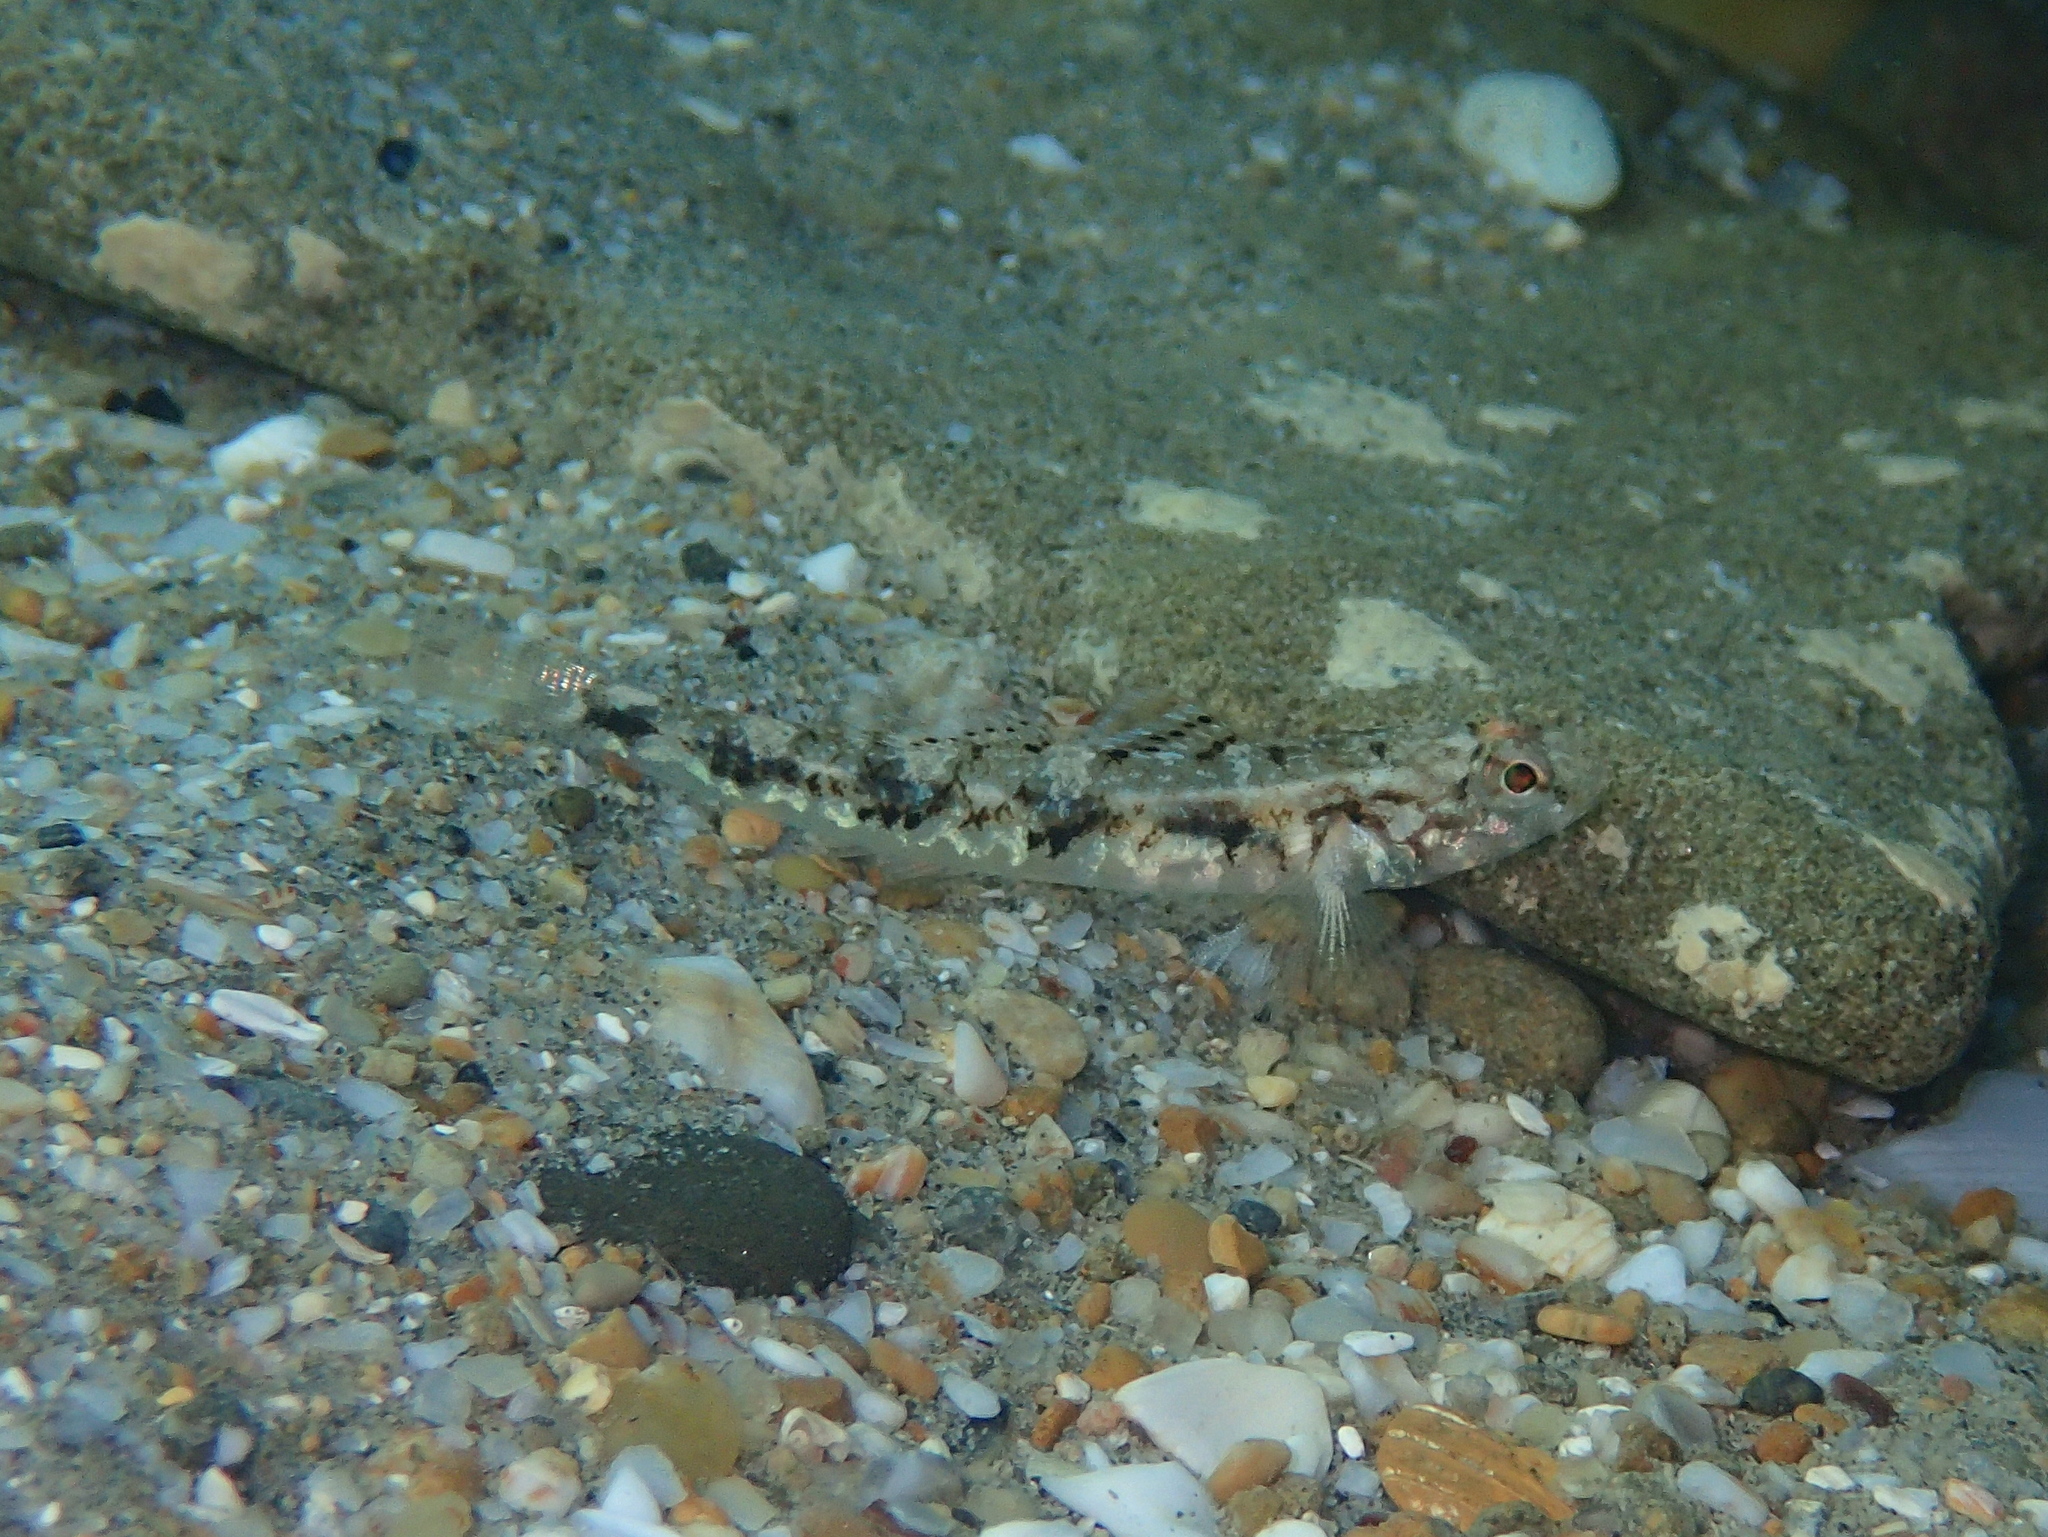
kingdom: Animalia
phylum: Chordata
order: Perciformes
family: Gobiidae
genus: Pomatoschistus
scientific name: Pomatoschistus pictus
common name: Painted goby
